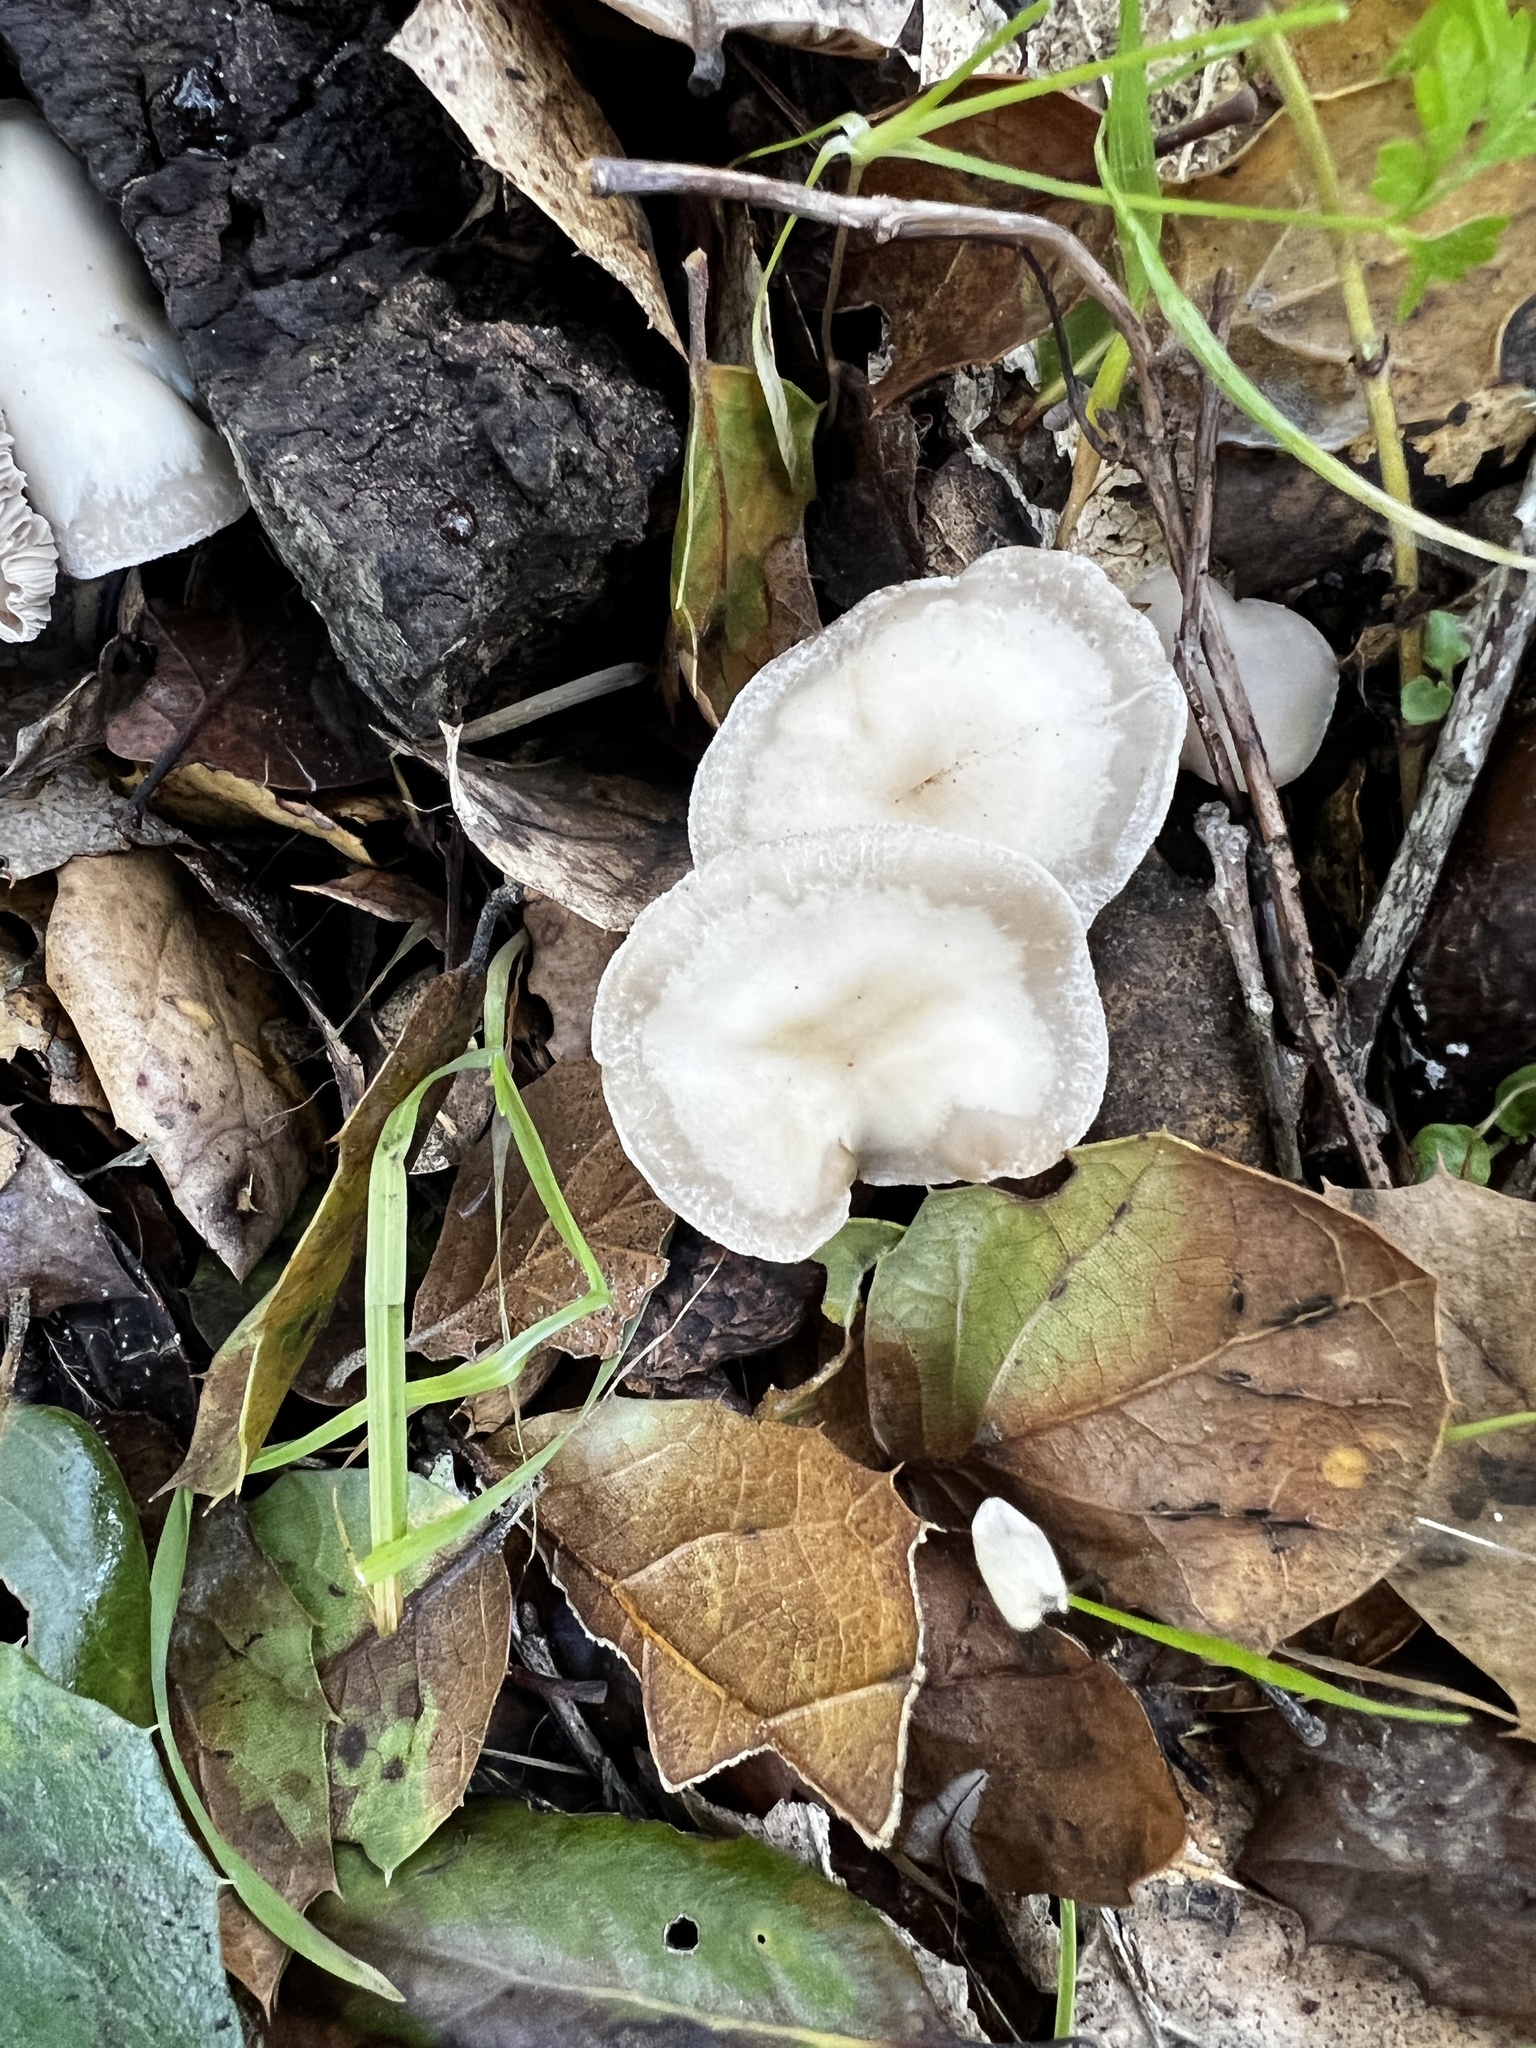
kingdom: Fungi
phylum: Basidiomycota
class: Agaricomycetes
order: Agaricales
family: Tricholomataceae
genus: Pseudolyophyllum
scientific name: Pseudolyophyllum
